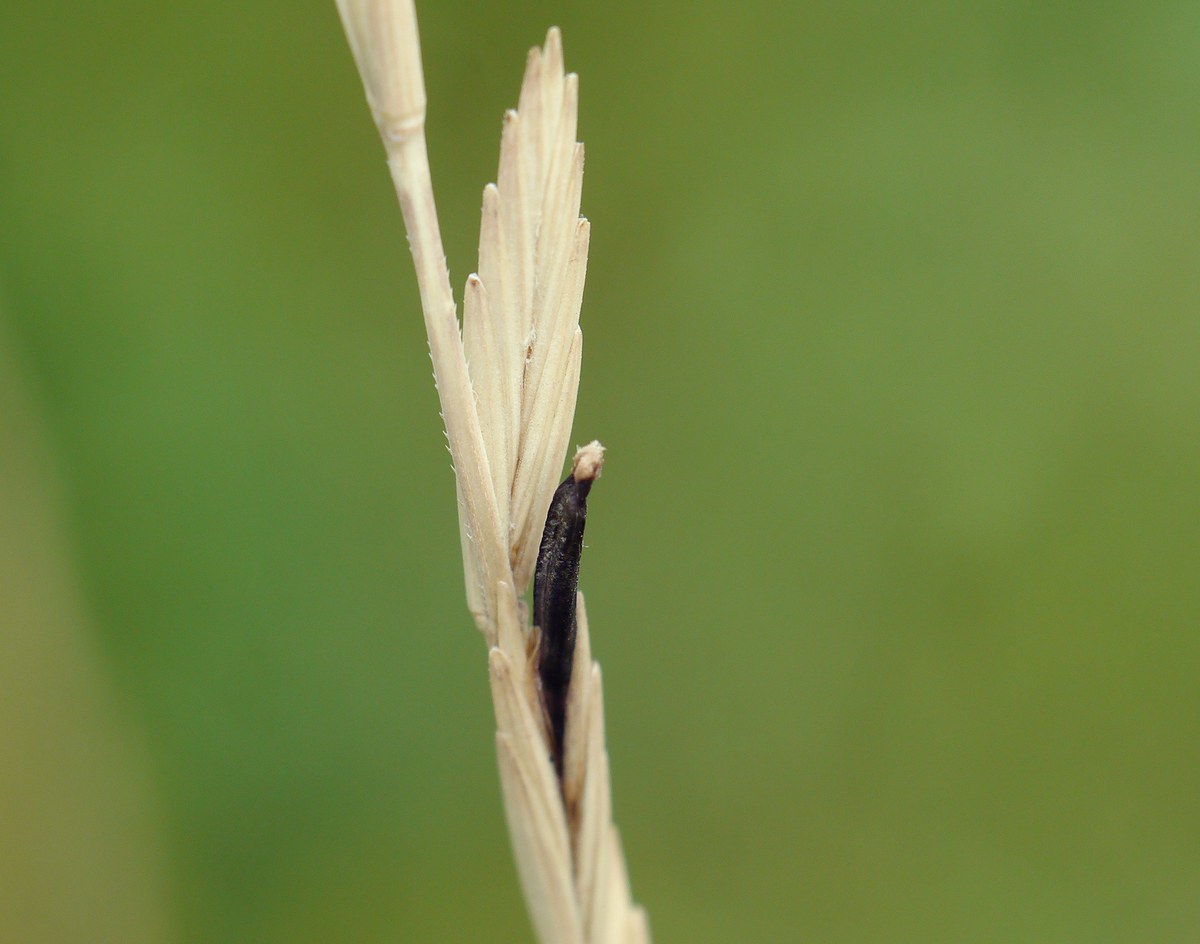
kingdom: Fungi
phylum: Ascomycota
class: Sordariomycetes
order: Hypocreales
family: Clavicipitaceae
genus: Claviceps
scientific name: Claviceps purpurea
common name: Rye ergot
